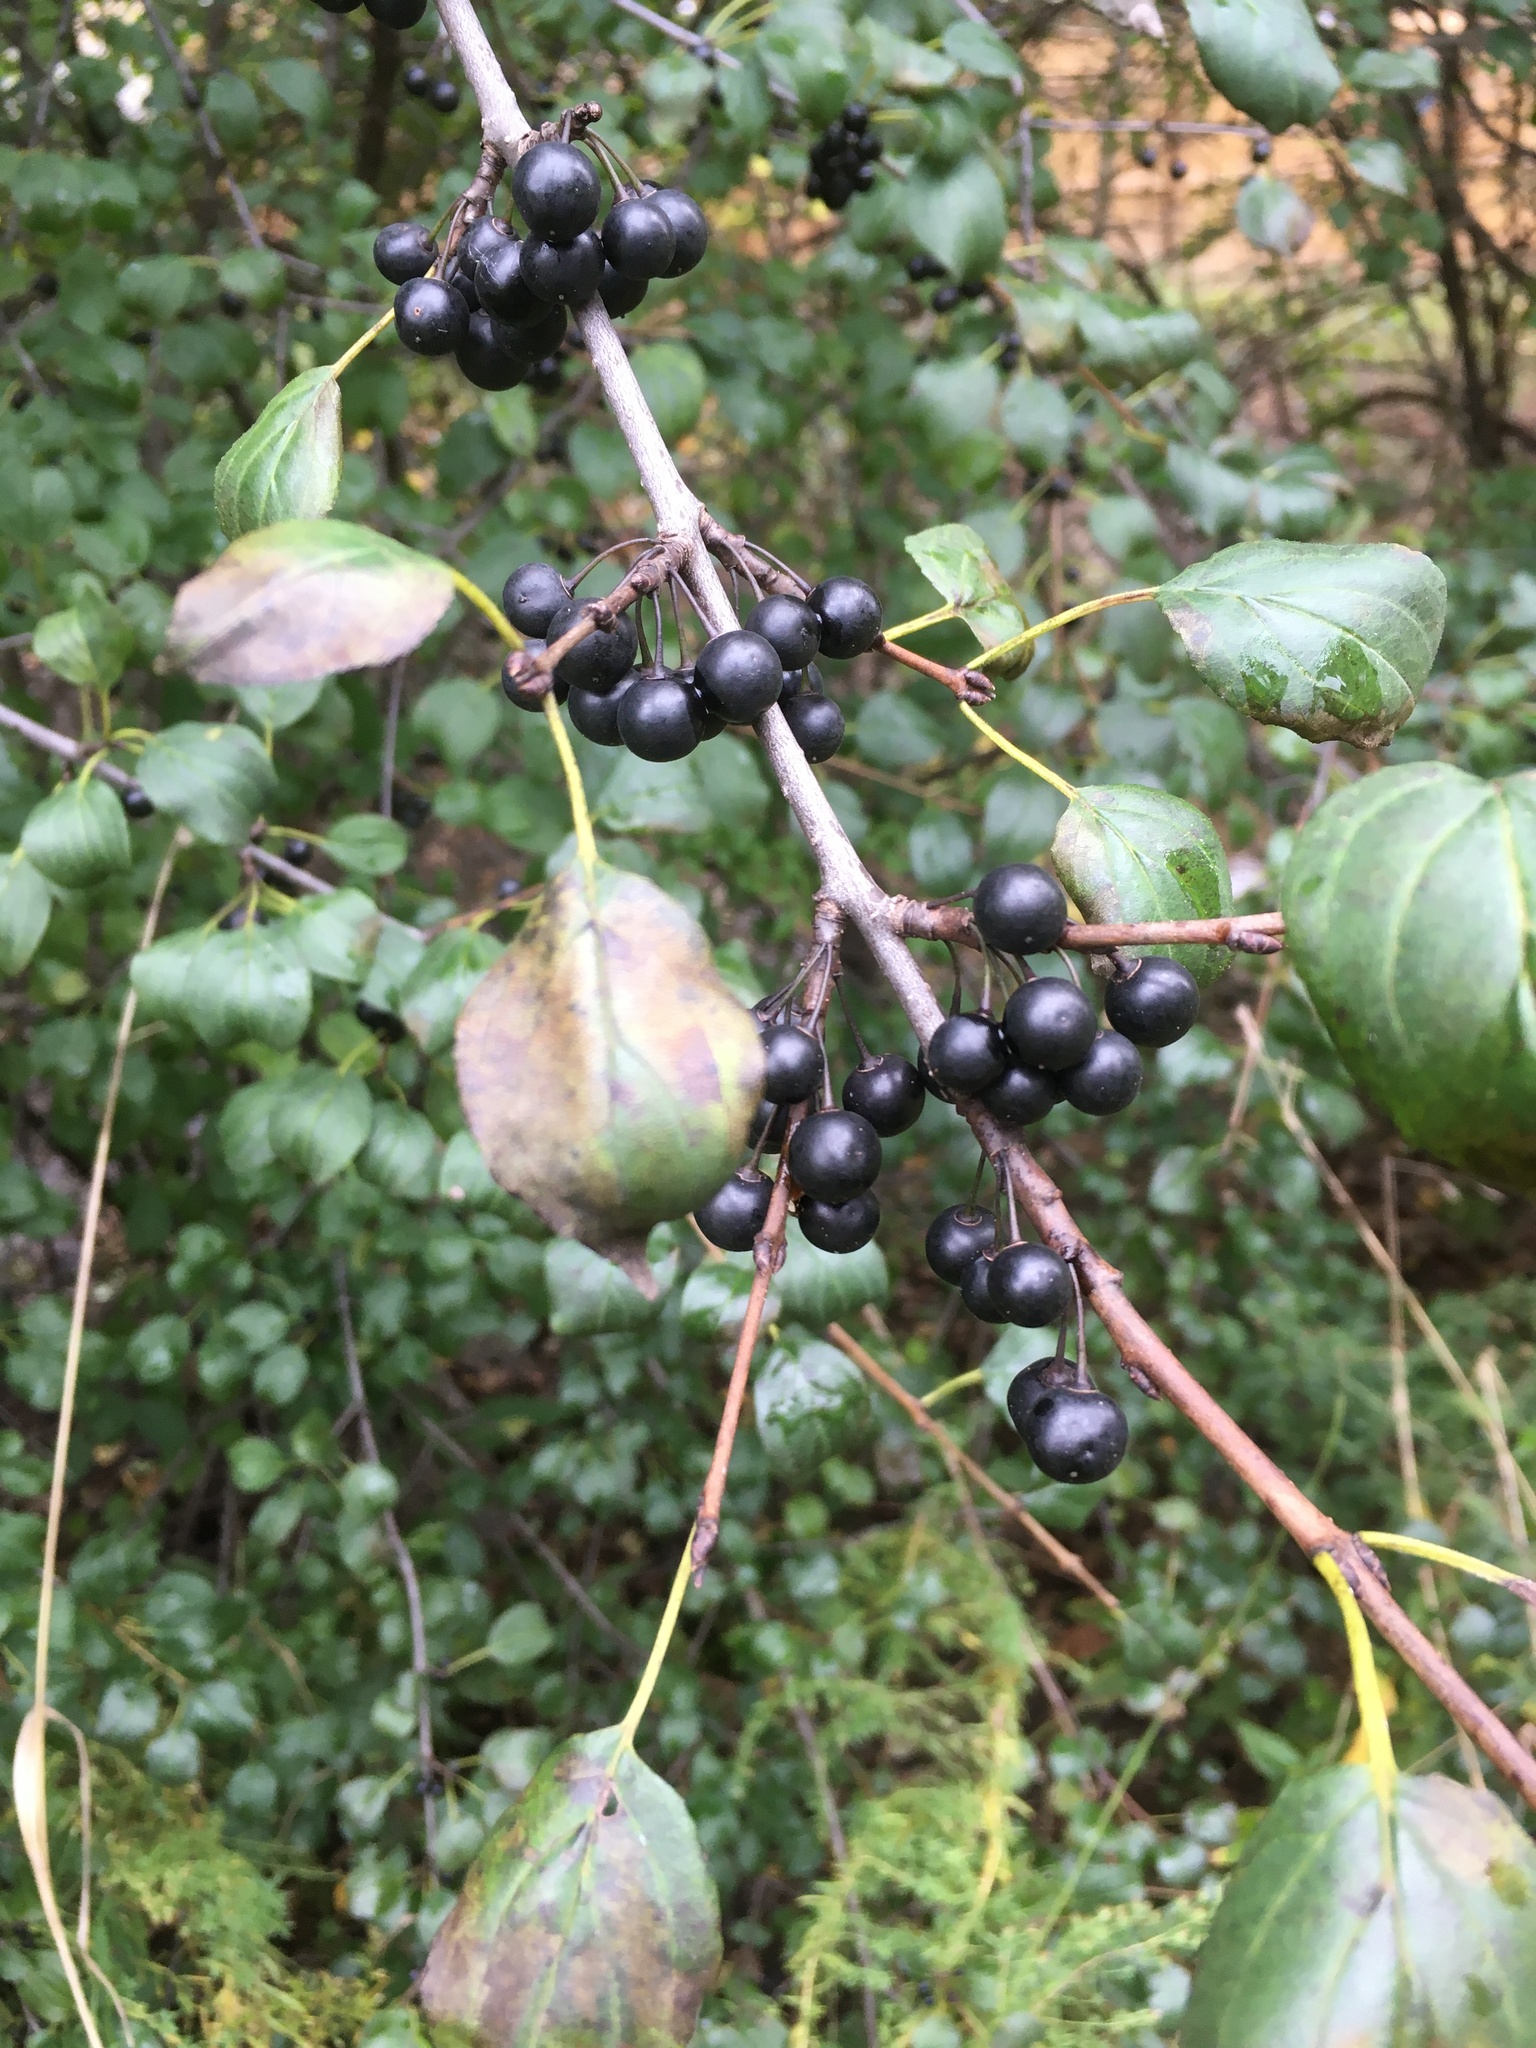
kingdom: Plantae
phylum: Tracheophyta
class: Magnoliopsida
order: Rosales
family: Rhamnaceae
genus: Rhamnus
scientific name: Rhamnus cathartica
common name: Common buckthorn
